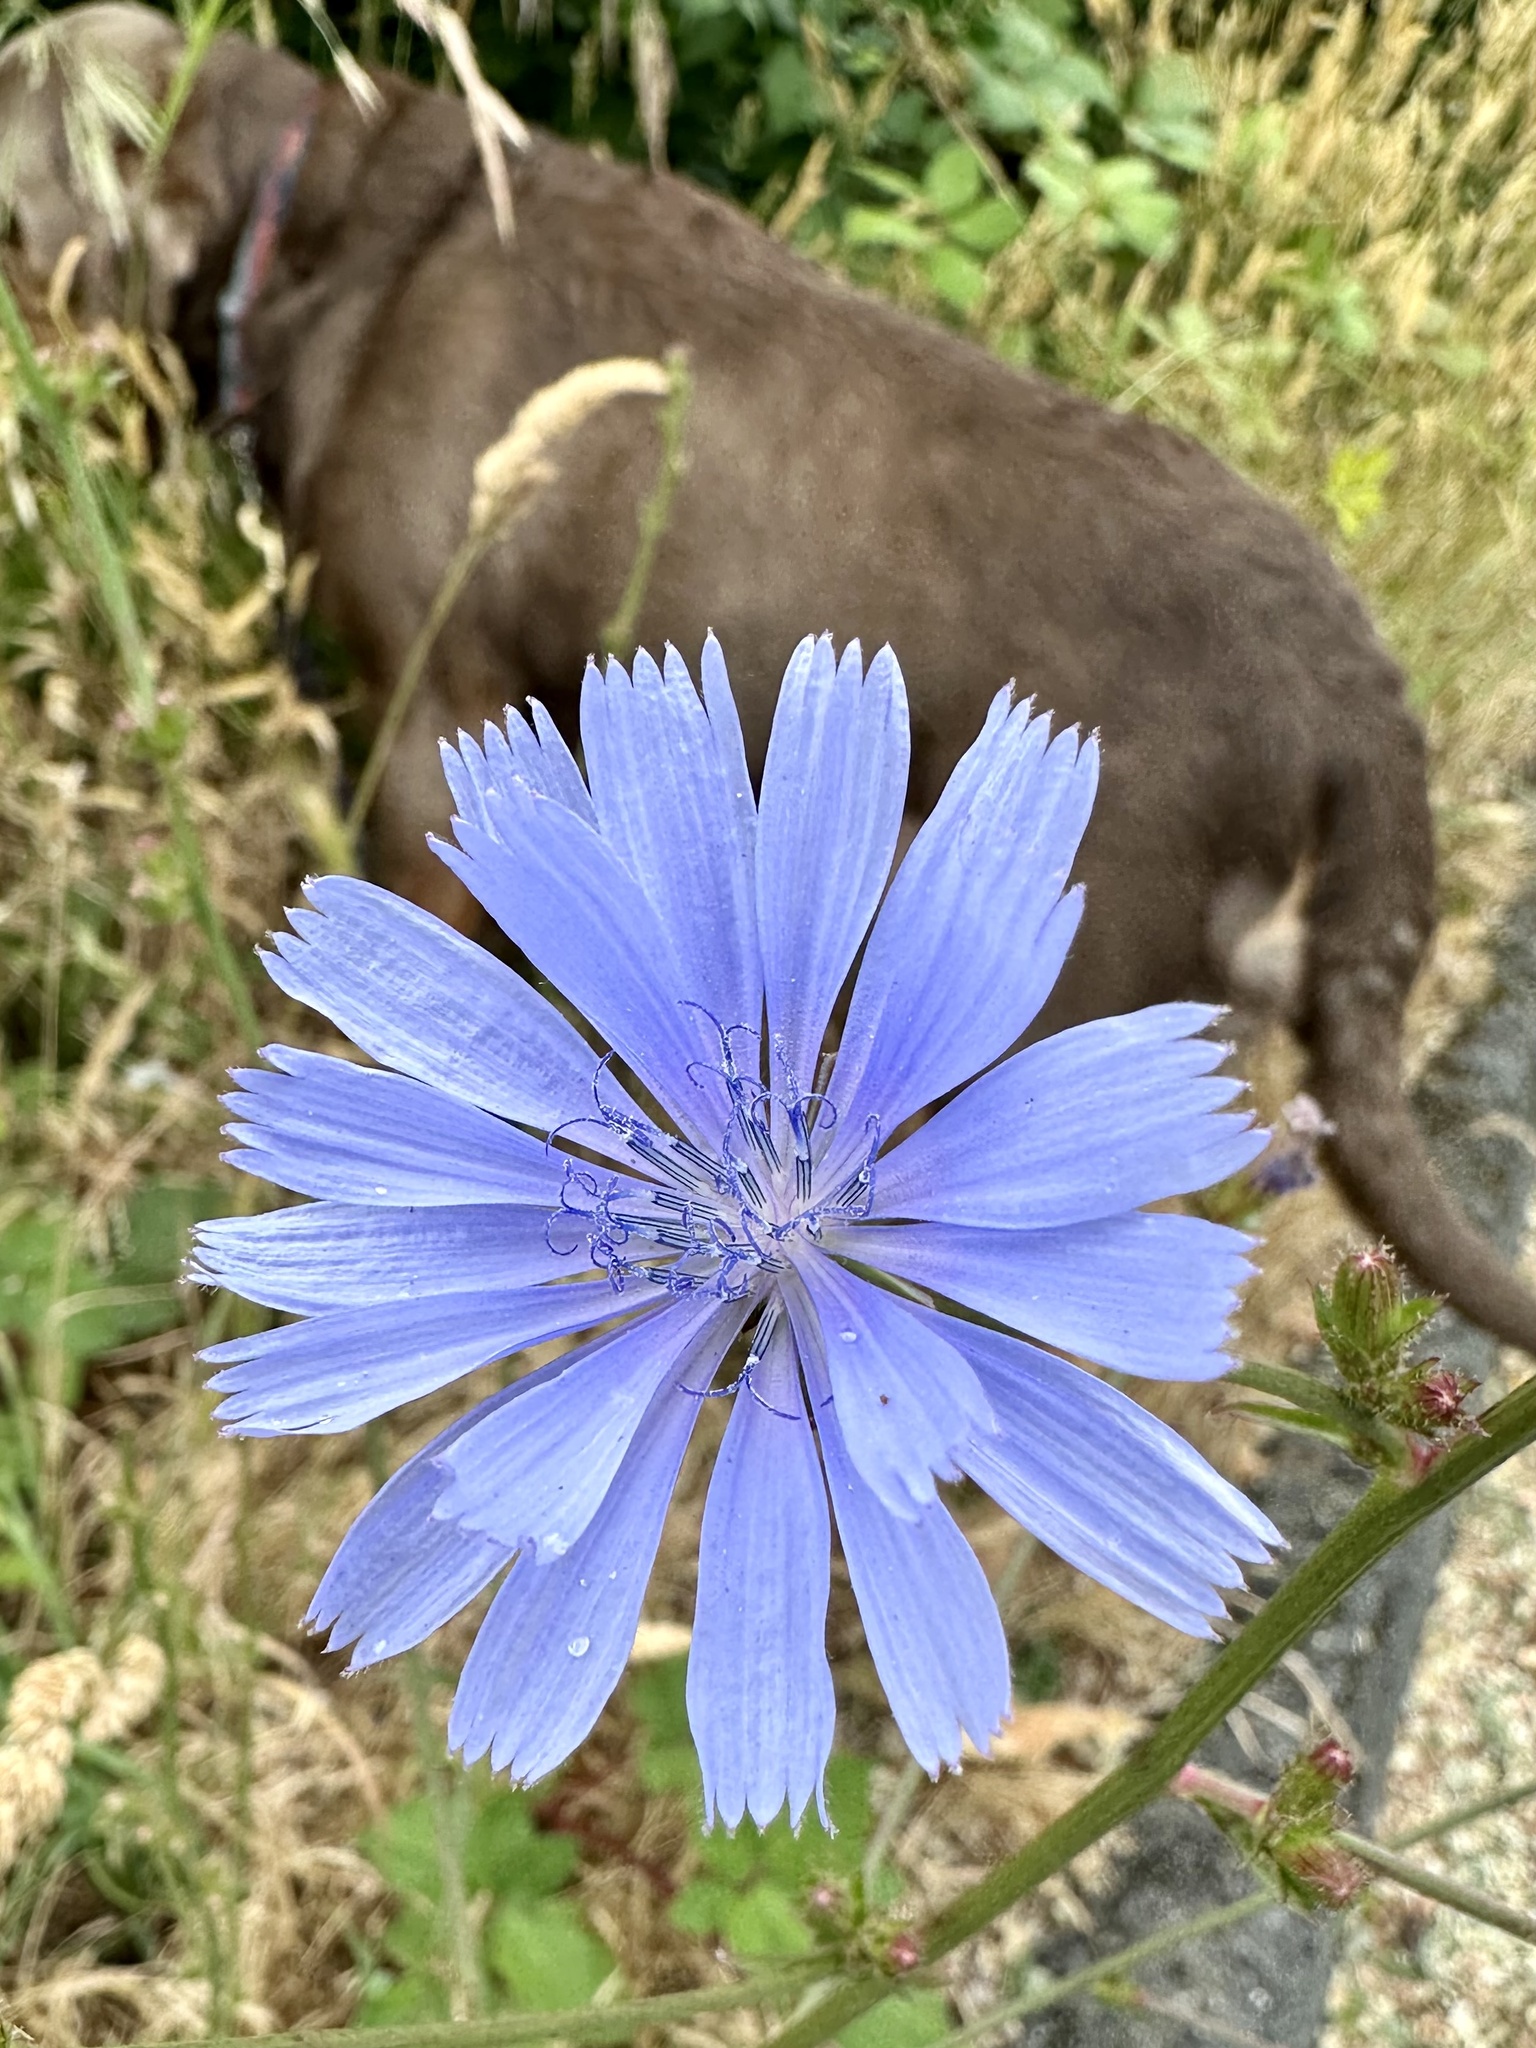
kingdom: Plantae
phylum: Tracheophyta
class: Magnoliopsida
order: Asterales
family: Asteraceae
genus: Cichorium
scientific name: Cichorium intybus
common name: Chicory
